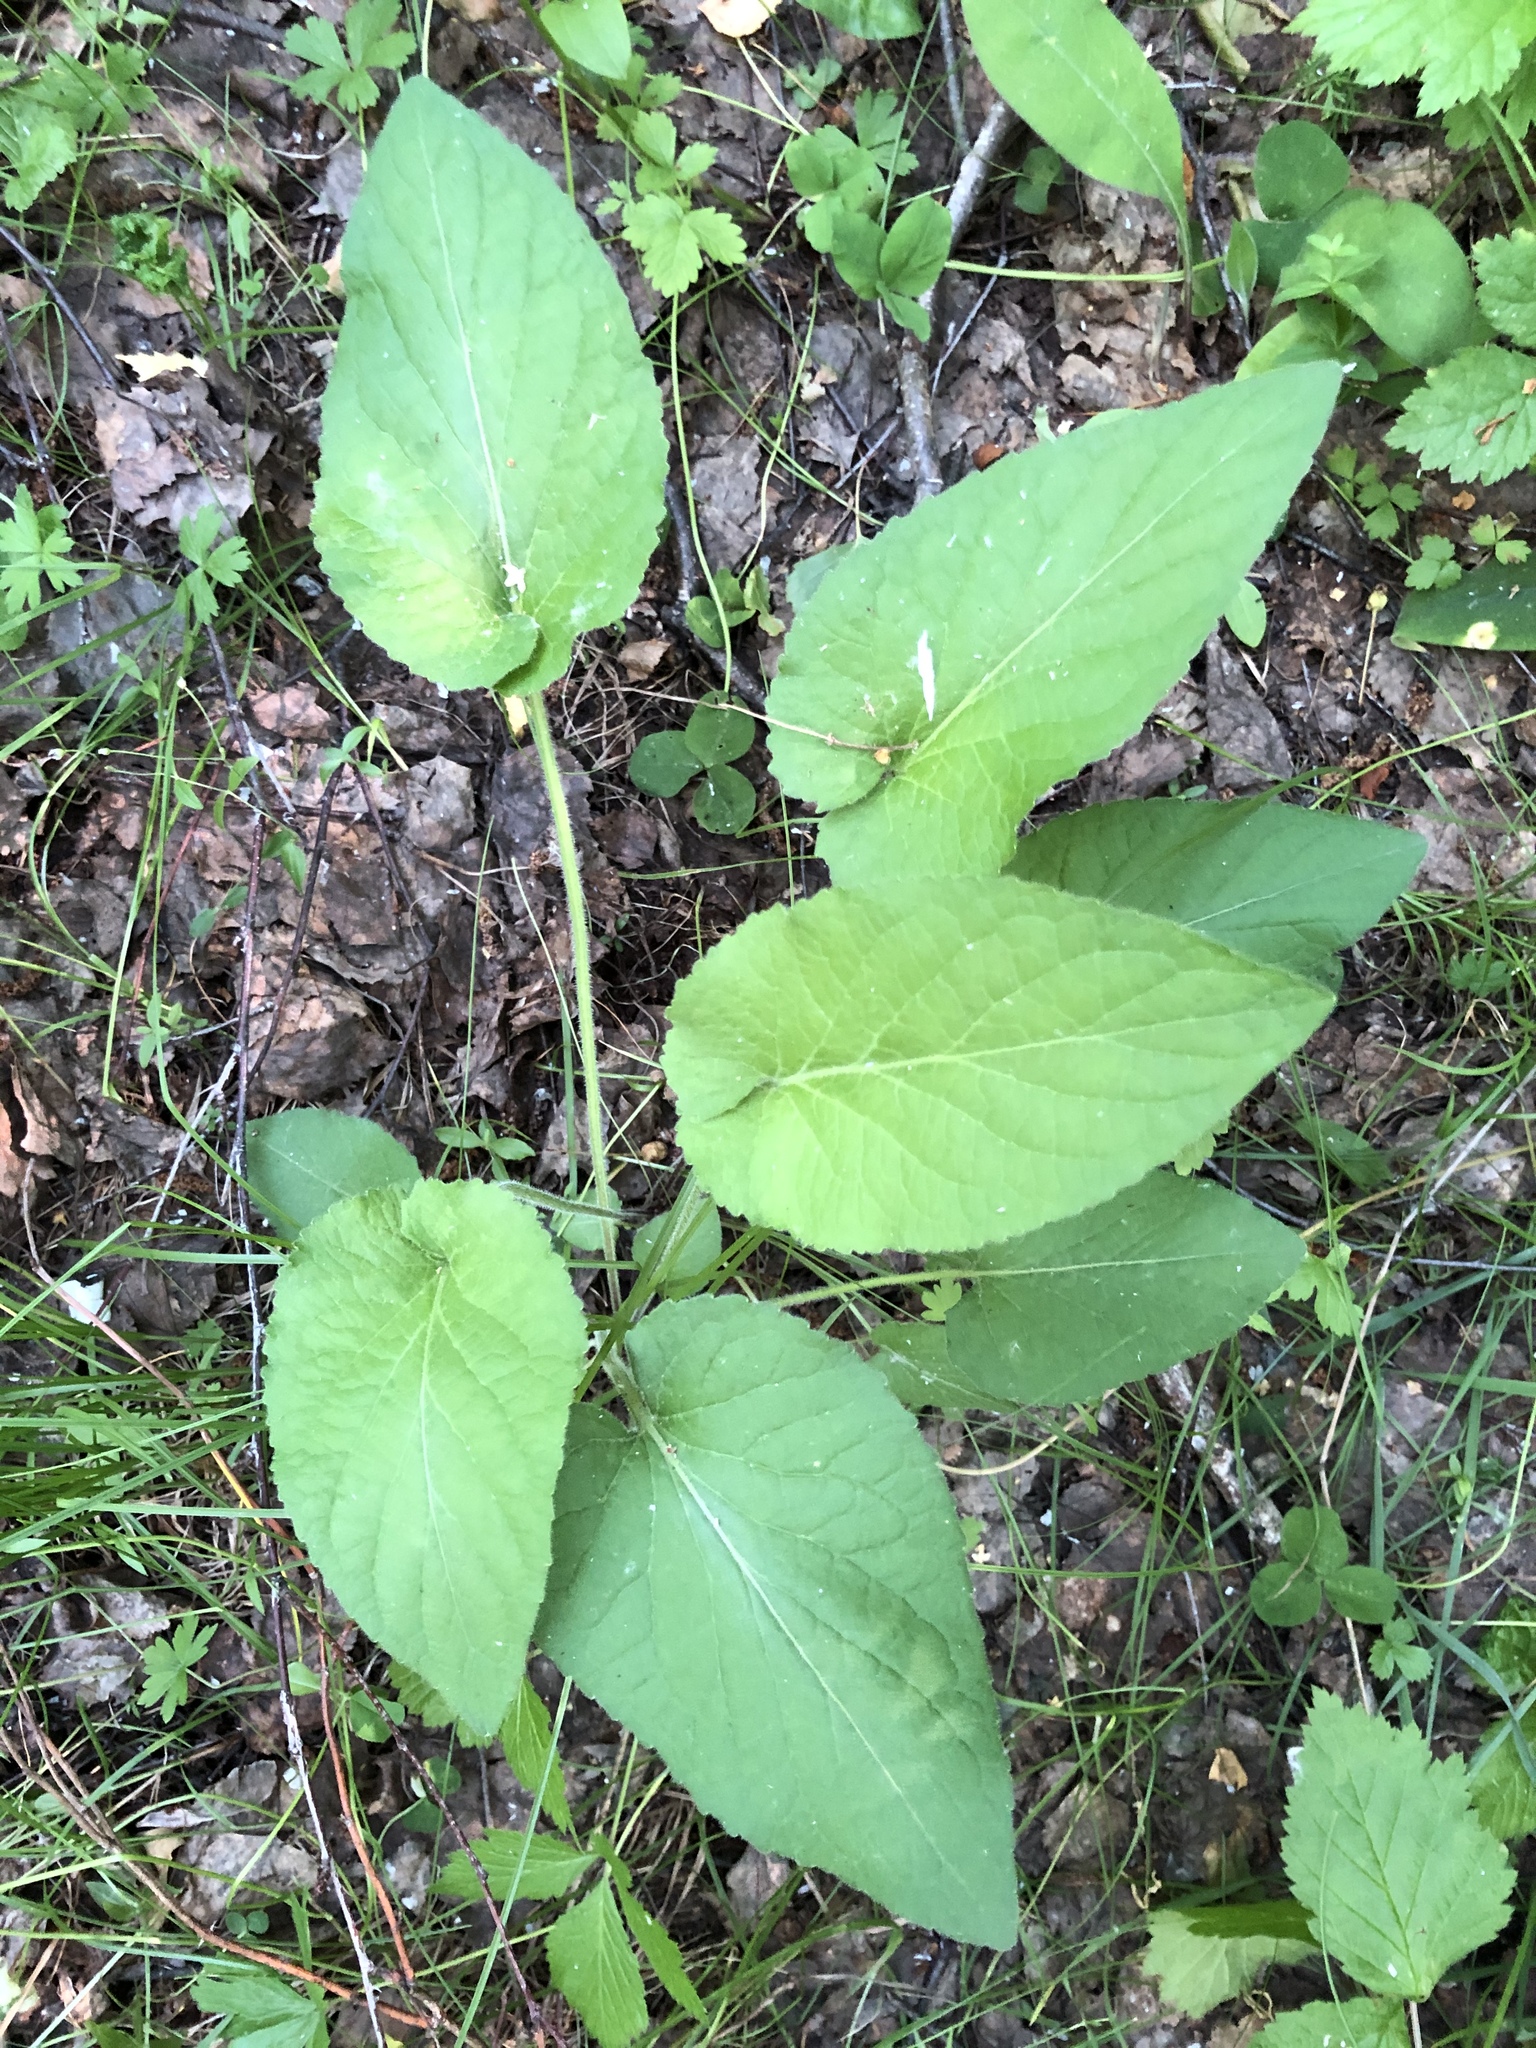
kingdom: Plantae
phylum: Tracheophyta
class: Magnoliopsida
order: Malpighiales
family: Violaceae
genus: Viola
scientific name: Viola hirta
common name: Hairy violet
